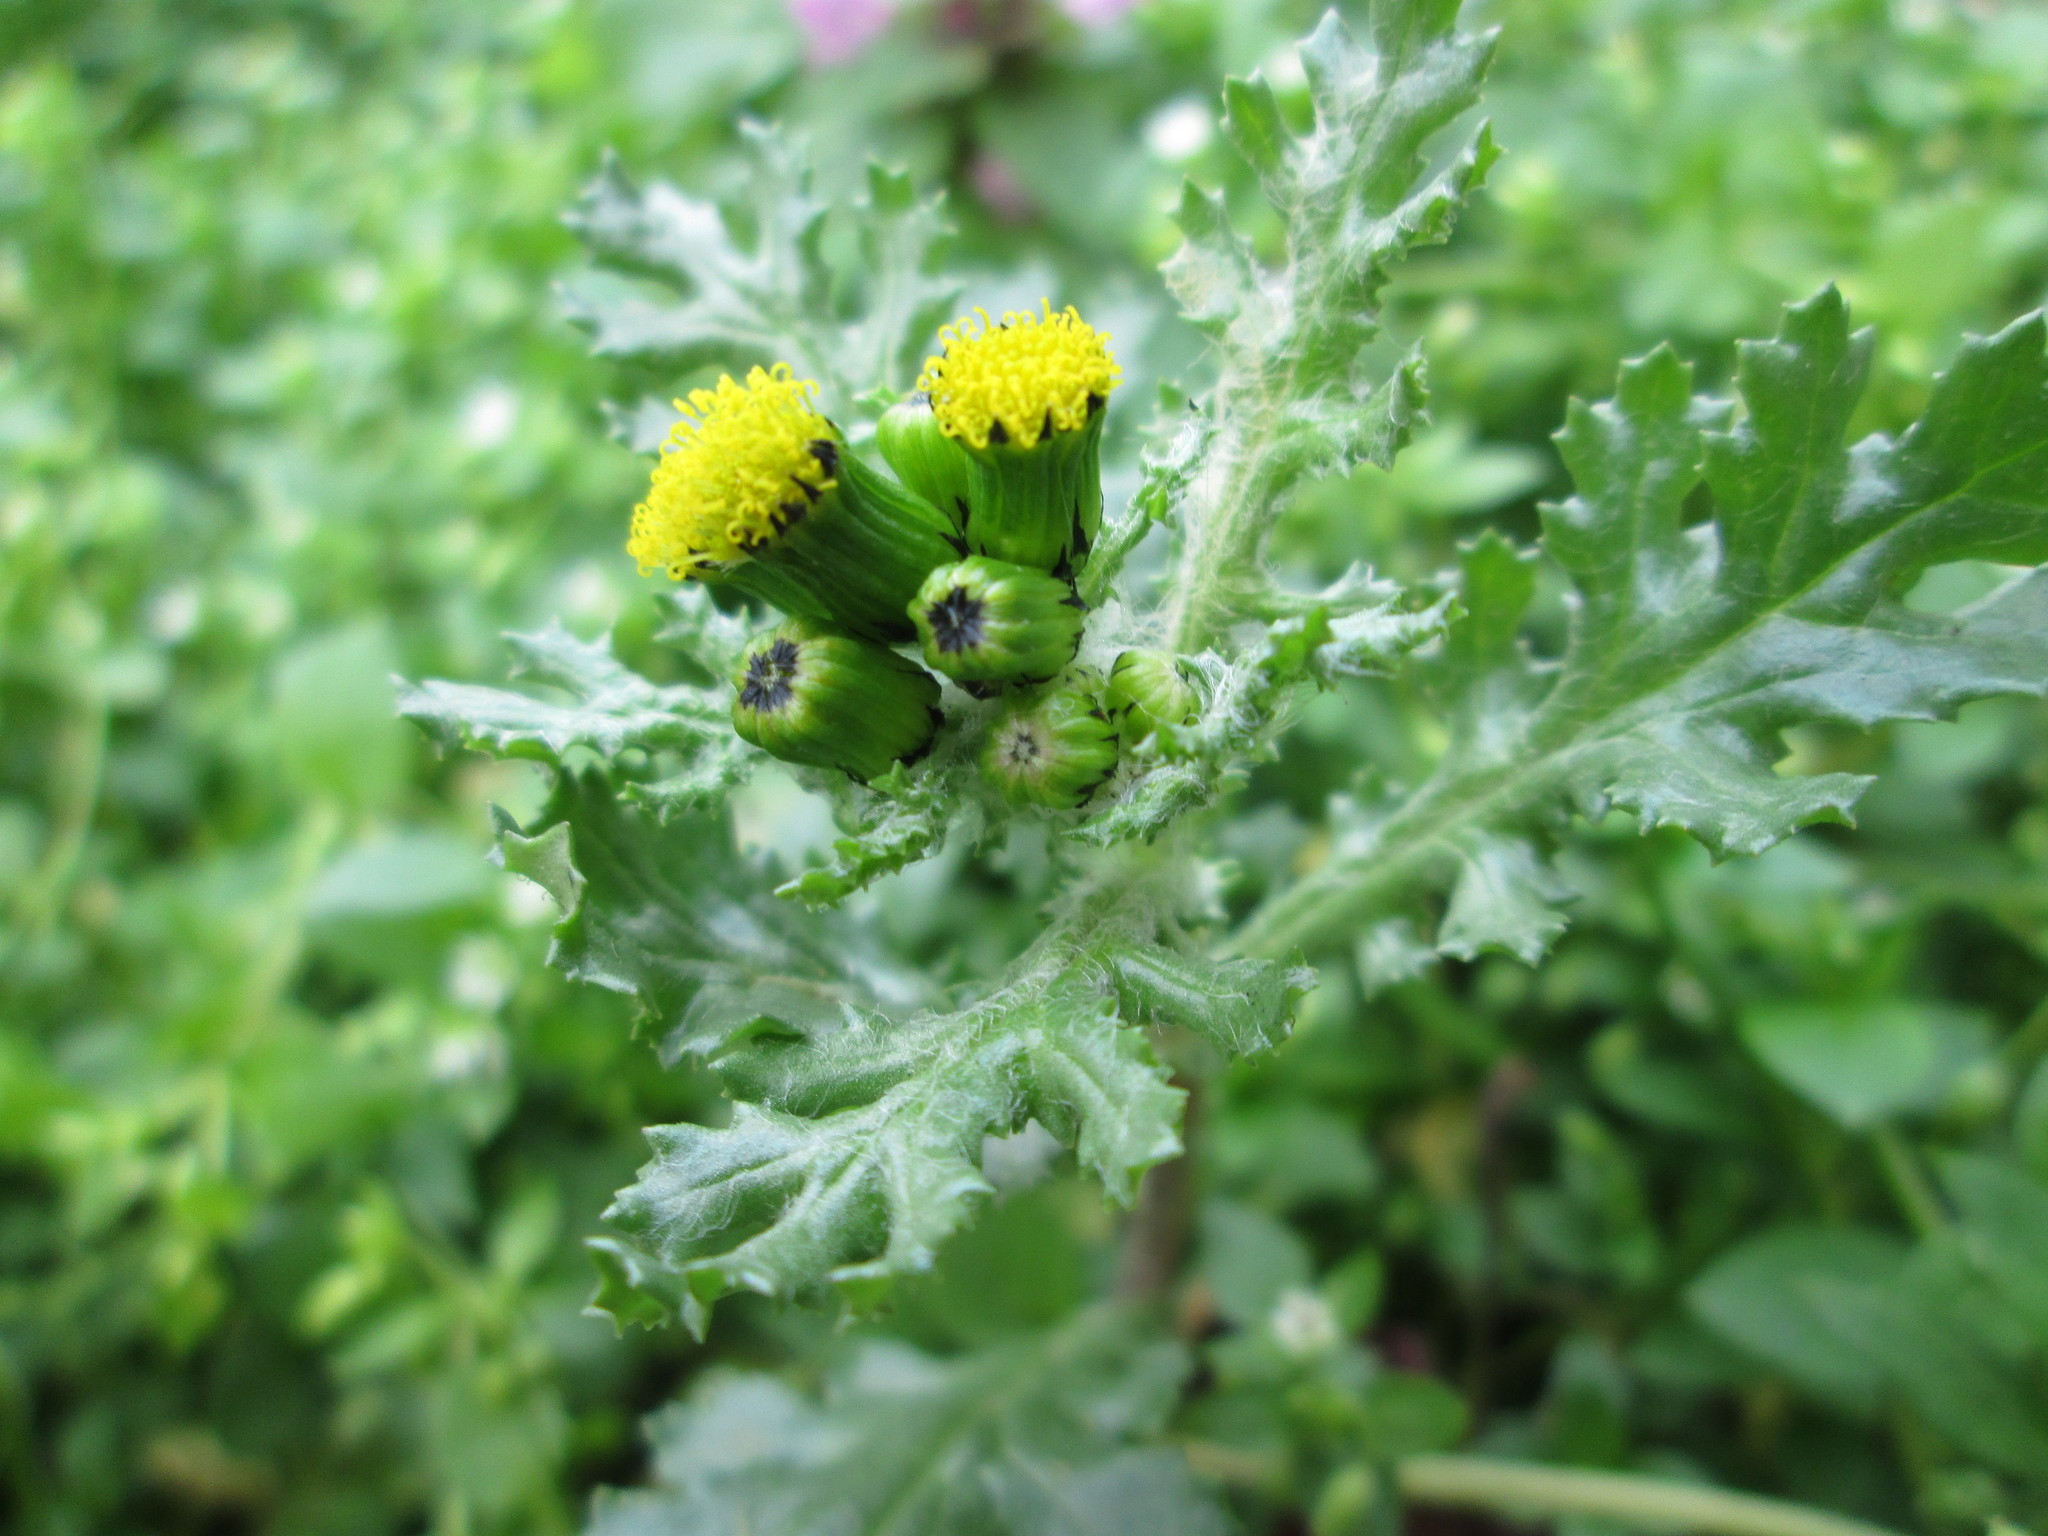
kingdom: Plantae
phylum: Tracheophyta
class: Magnoliopsida
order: Asterales
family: Asteraceae
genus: Senecio
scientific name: Senecio vulgaris
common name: Old-man-in-the-spring
